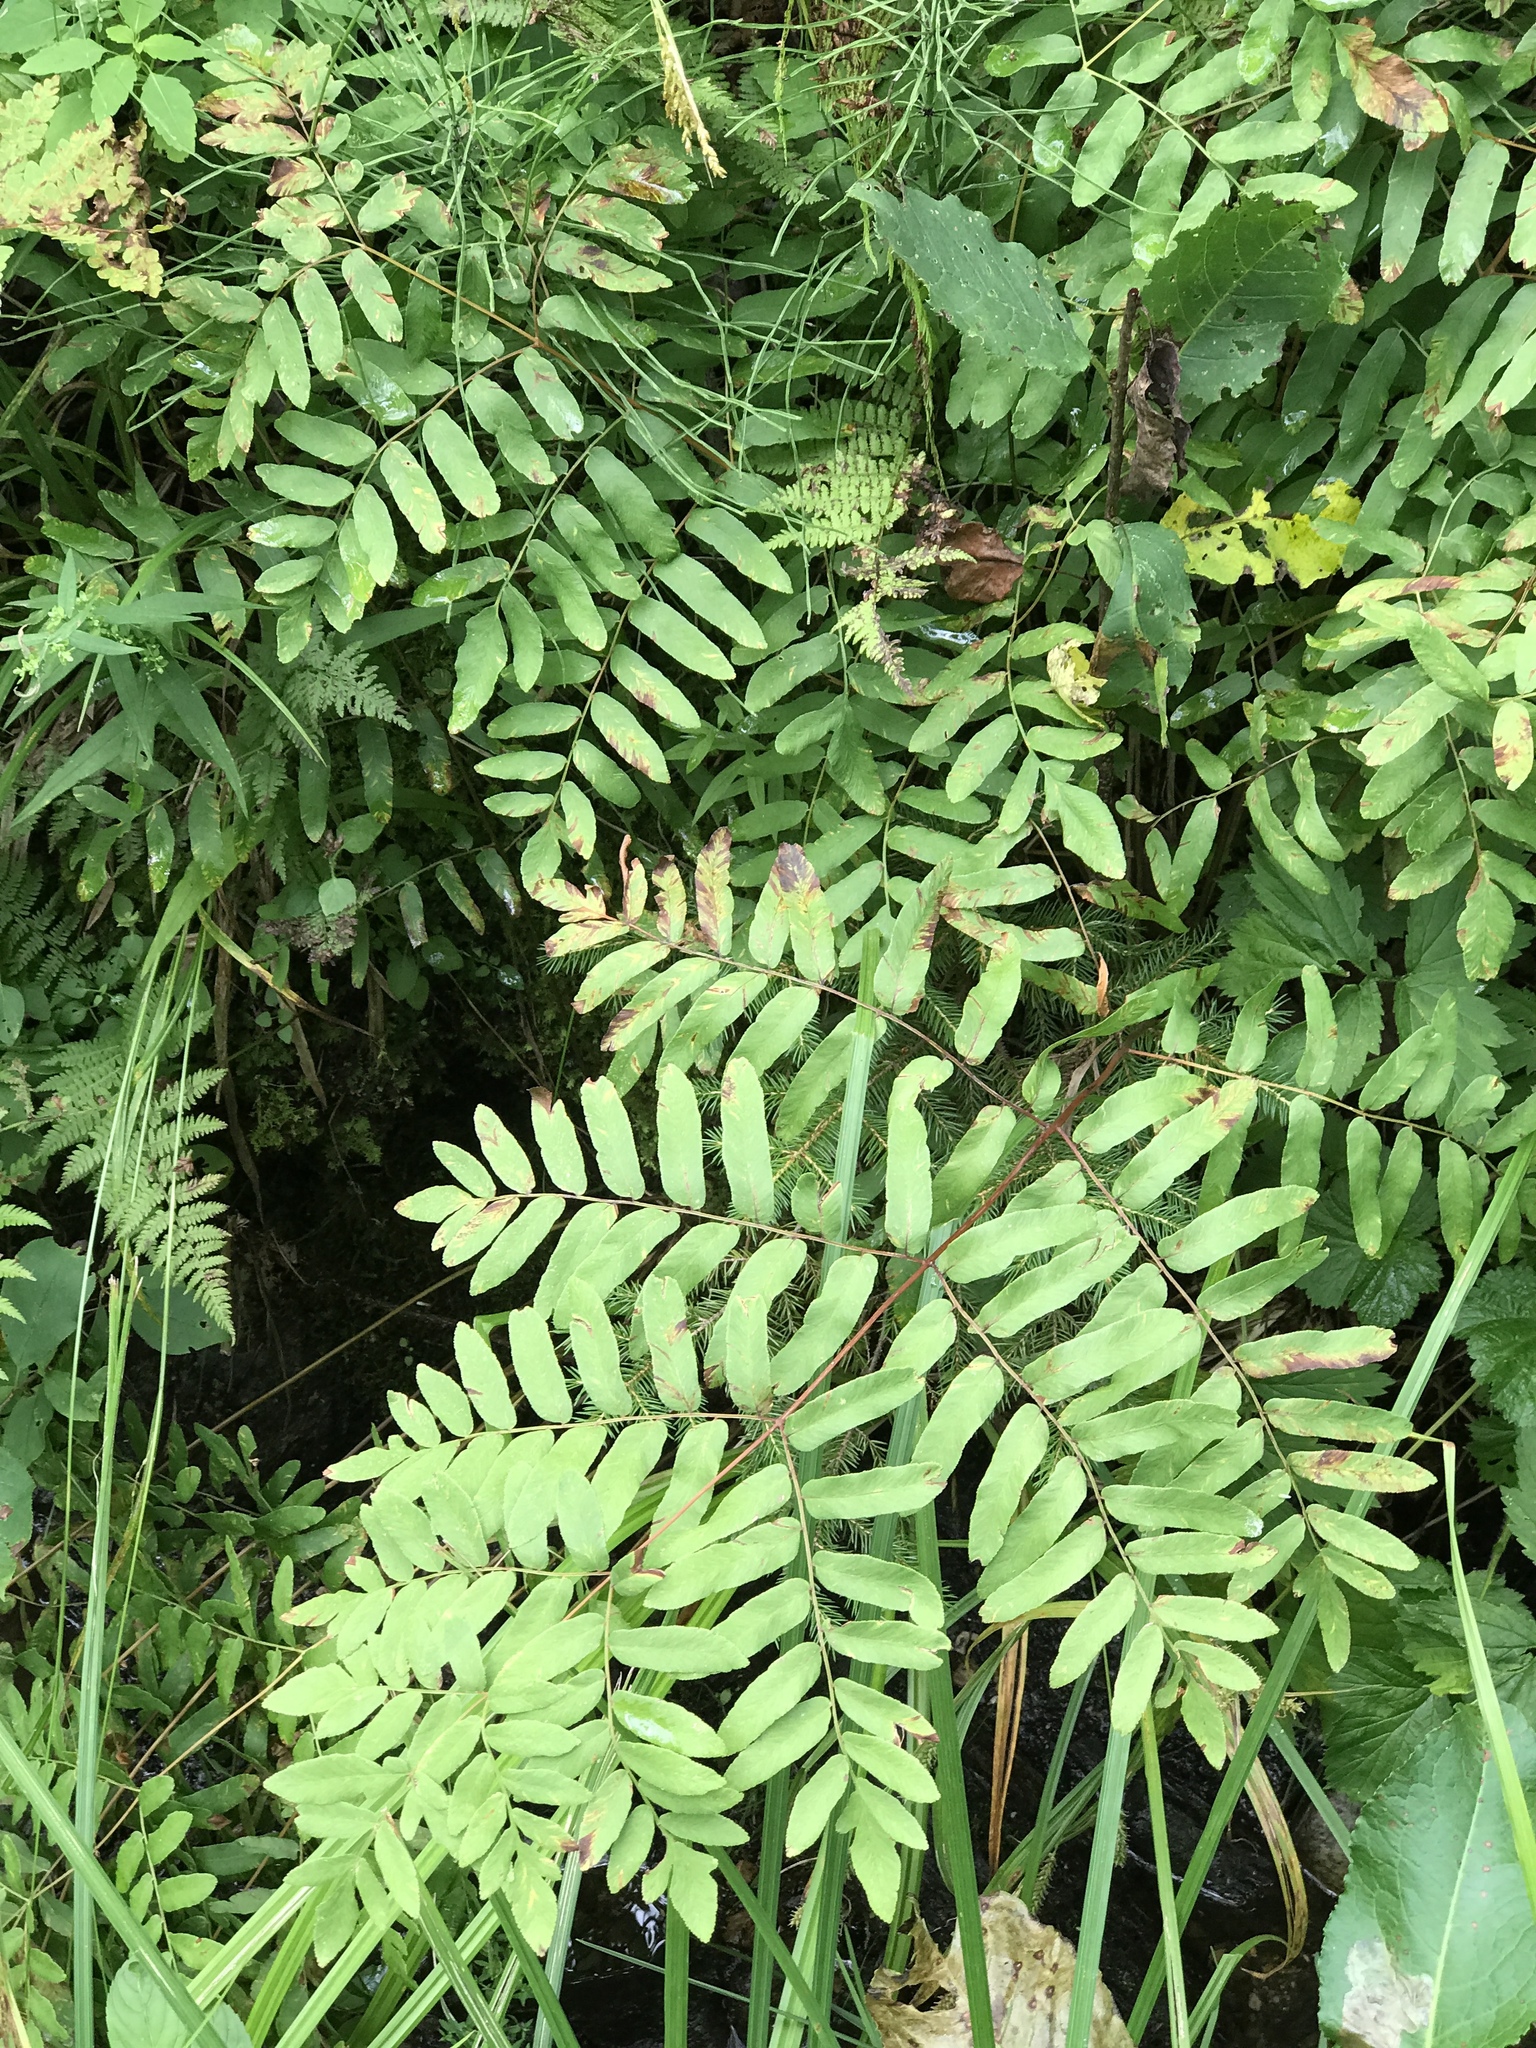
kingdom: Plantae
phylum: Tracheophyta
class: Polypodiopsida
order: Osmundales
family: Osmundaceae
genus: Osmunda
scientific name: Osmunda spectabilis
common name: American royal fern
